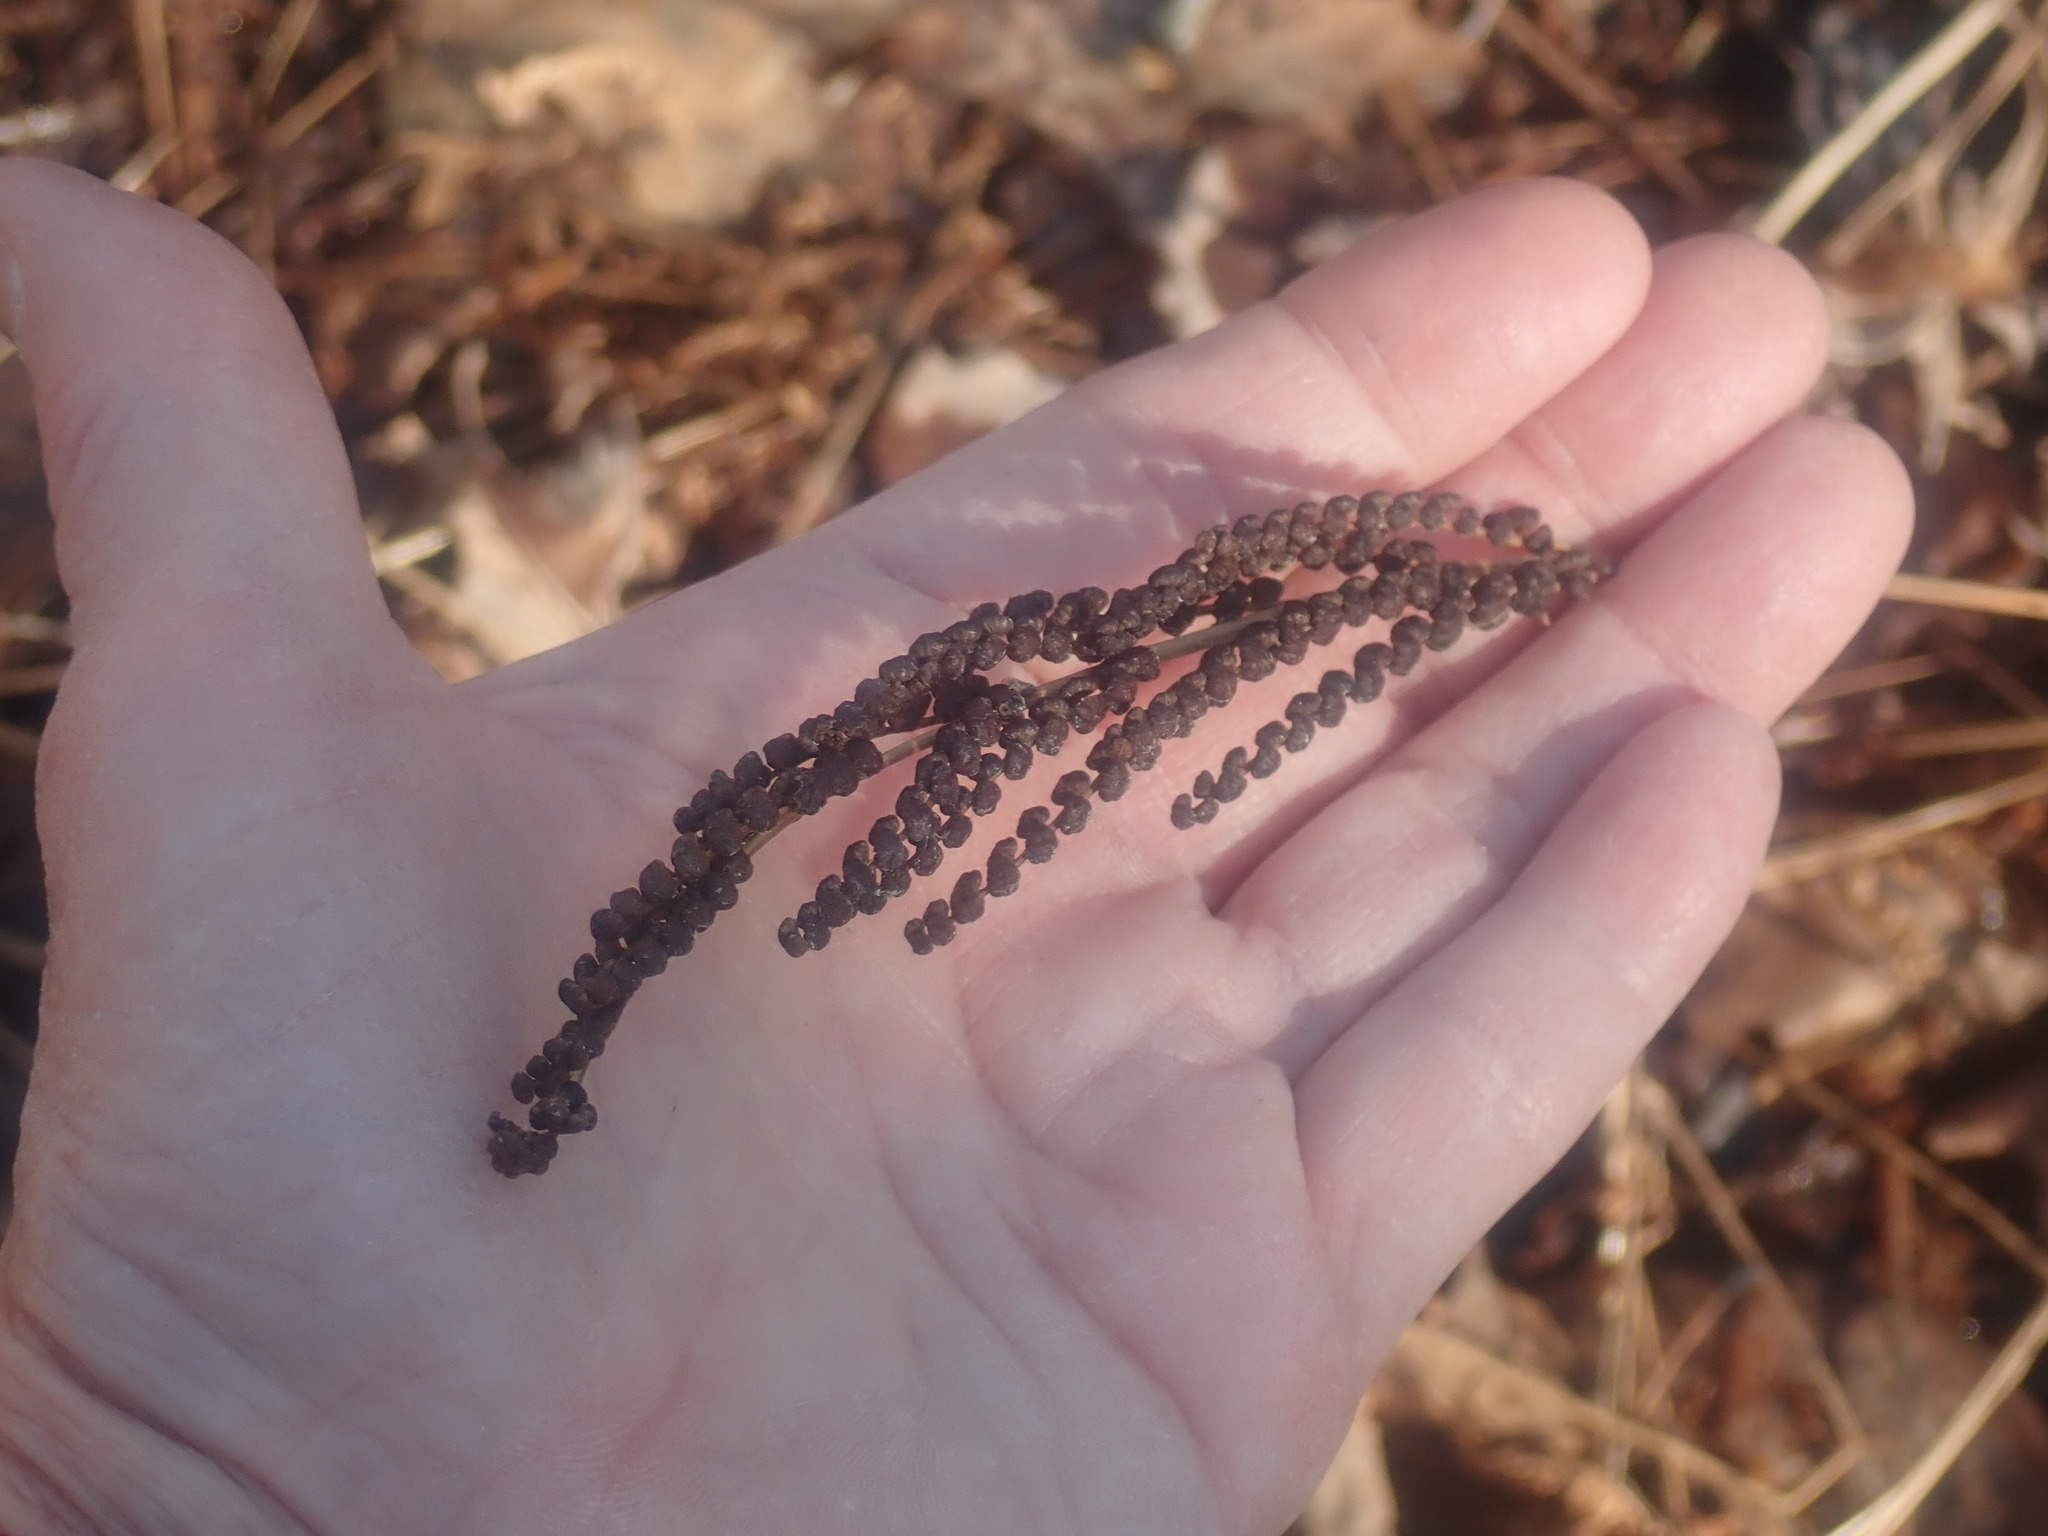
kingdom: Plantae
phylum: Tracheophyta
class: Polypodiopsida
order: Polypodiales
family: Onocleaceae
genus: Onoclea
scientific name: Onoclea sensibilis
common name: Sensitive fern
